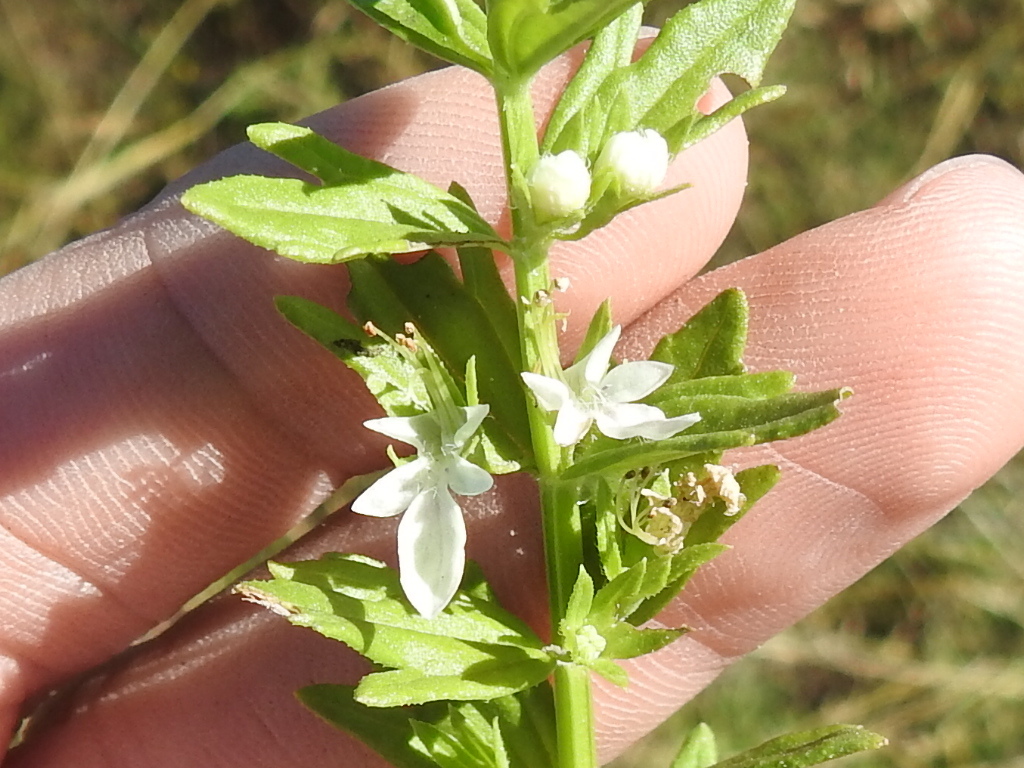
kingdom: Plantae
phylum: Tracheophyta
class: Magnoliopsida
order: Lamiales
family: Lamiaceae
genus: Teucrium
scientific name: Teucrium cubense
